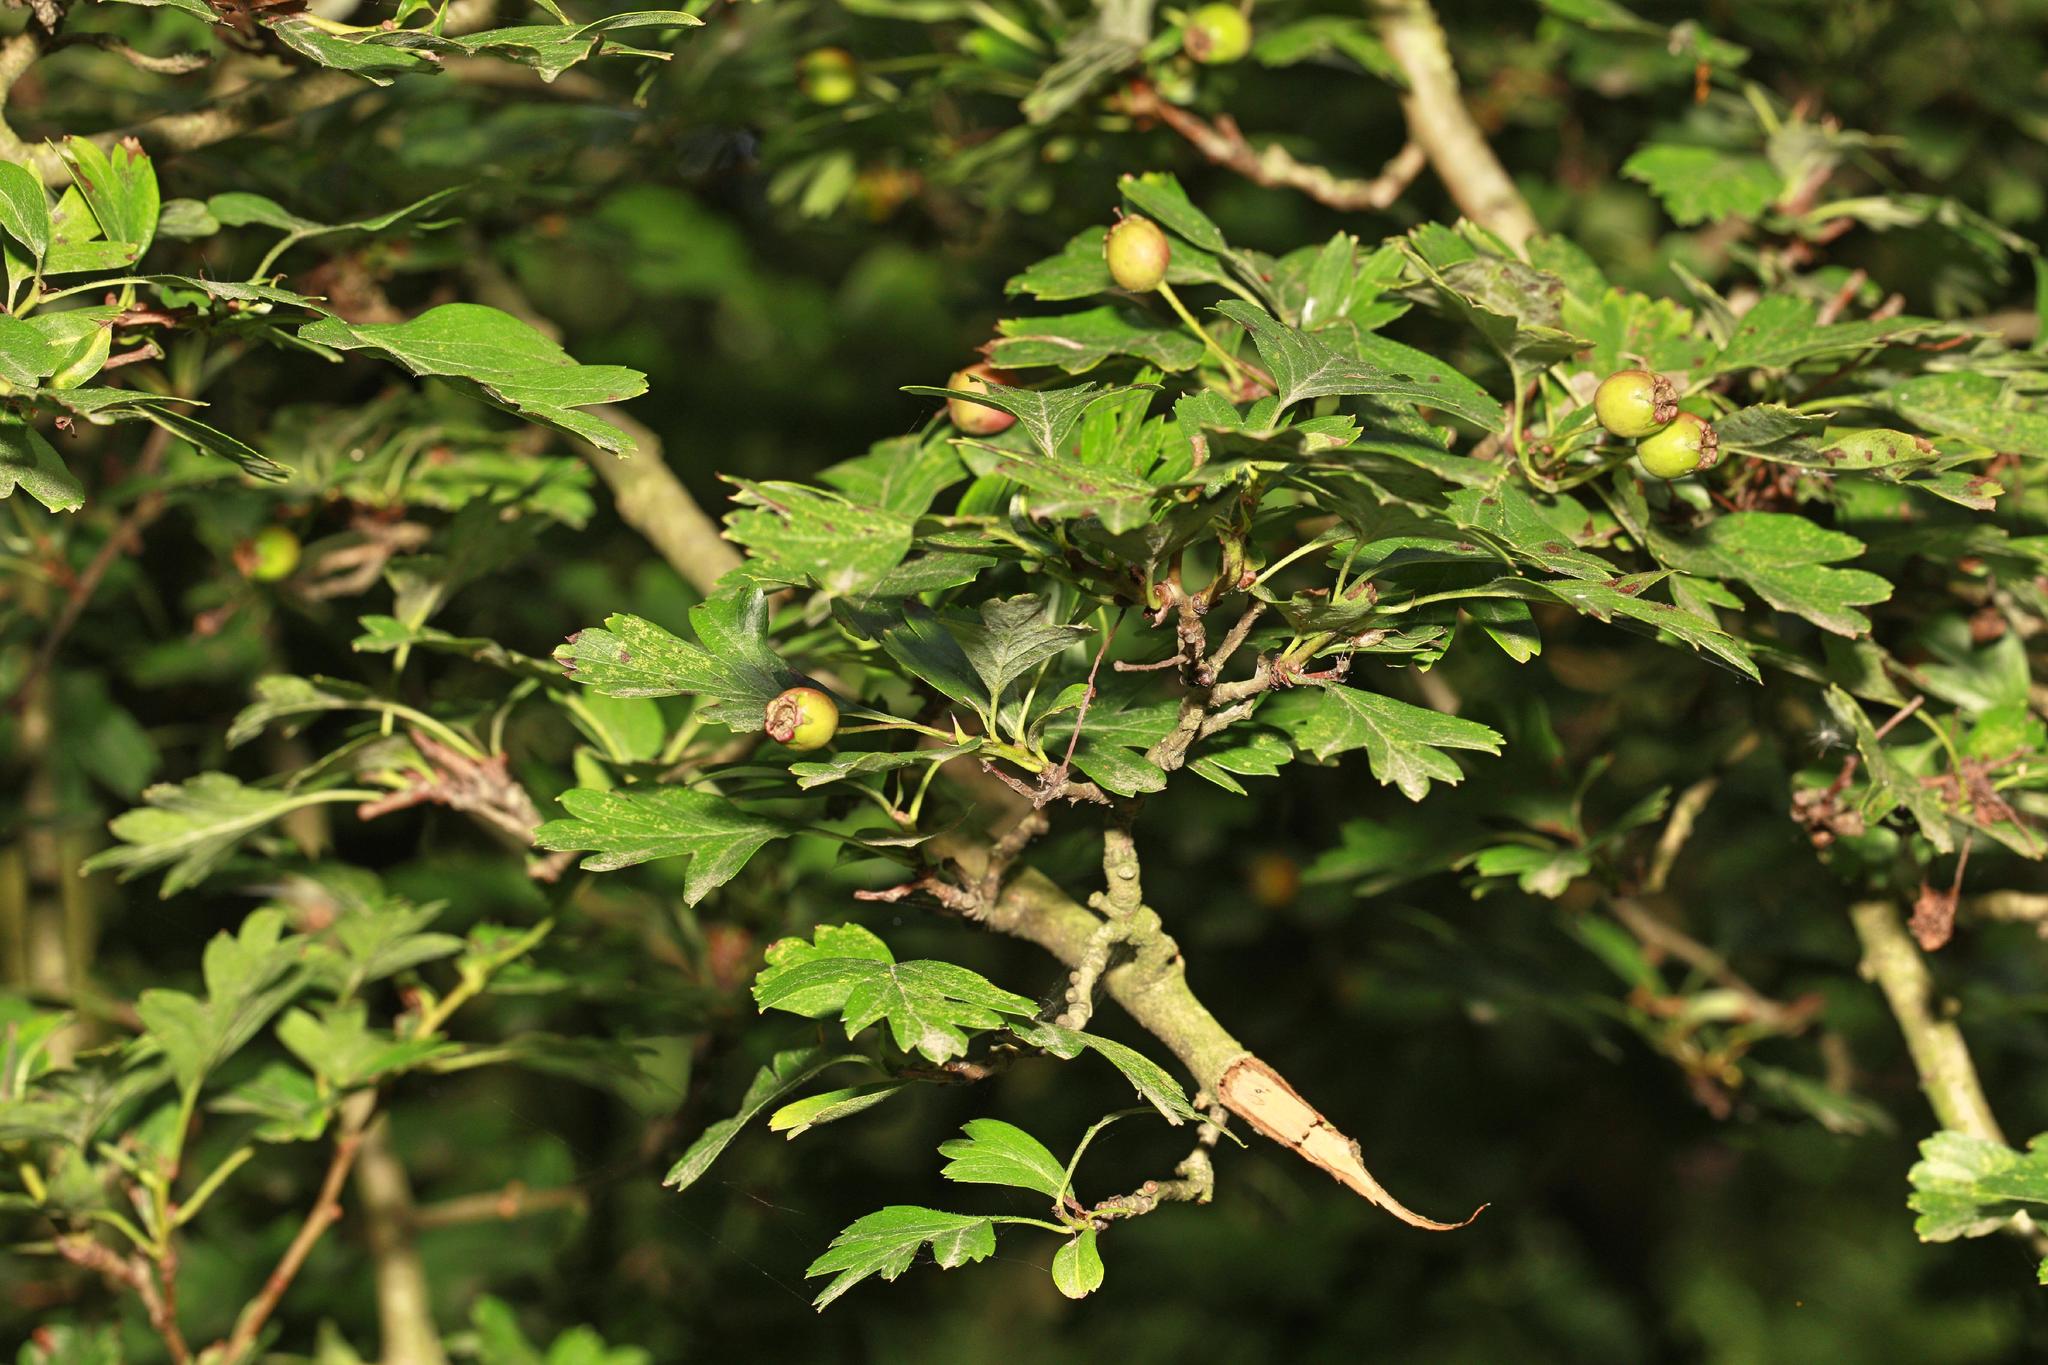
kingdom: Plantae
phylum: Tracheophyta
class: Magnoliopsida
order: Rosales
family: Rosaceae
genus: Crataegus
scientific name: Crataegus monogyna
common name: Hawthorn
